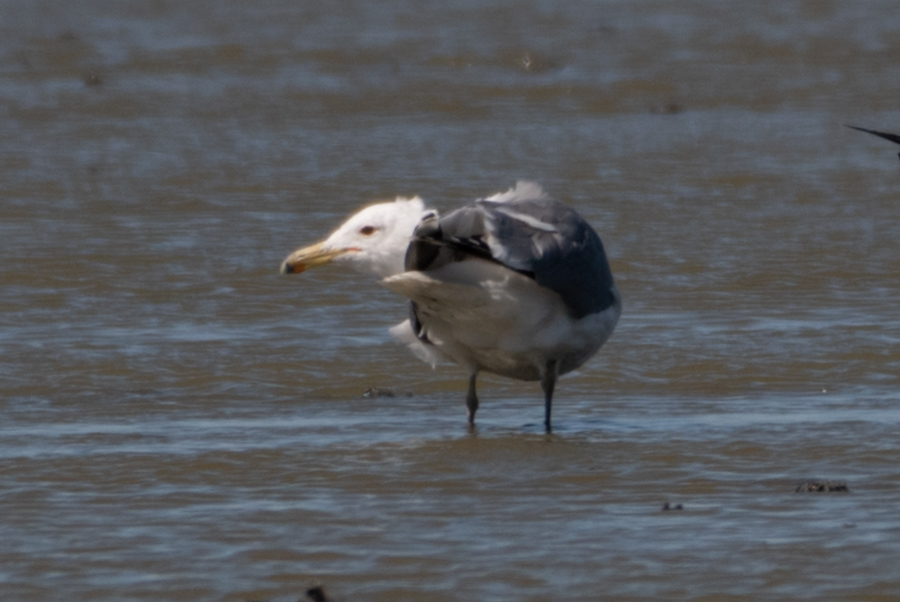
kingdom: Animalia
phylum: Chordata
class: Aves
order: Charadriiformes
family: Laridae
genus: Larus
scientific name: Larus californicus
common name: California gull
